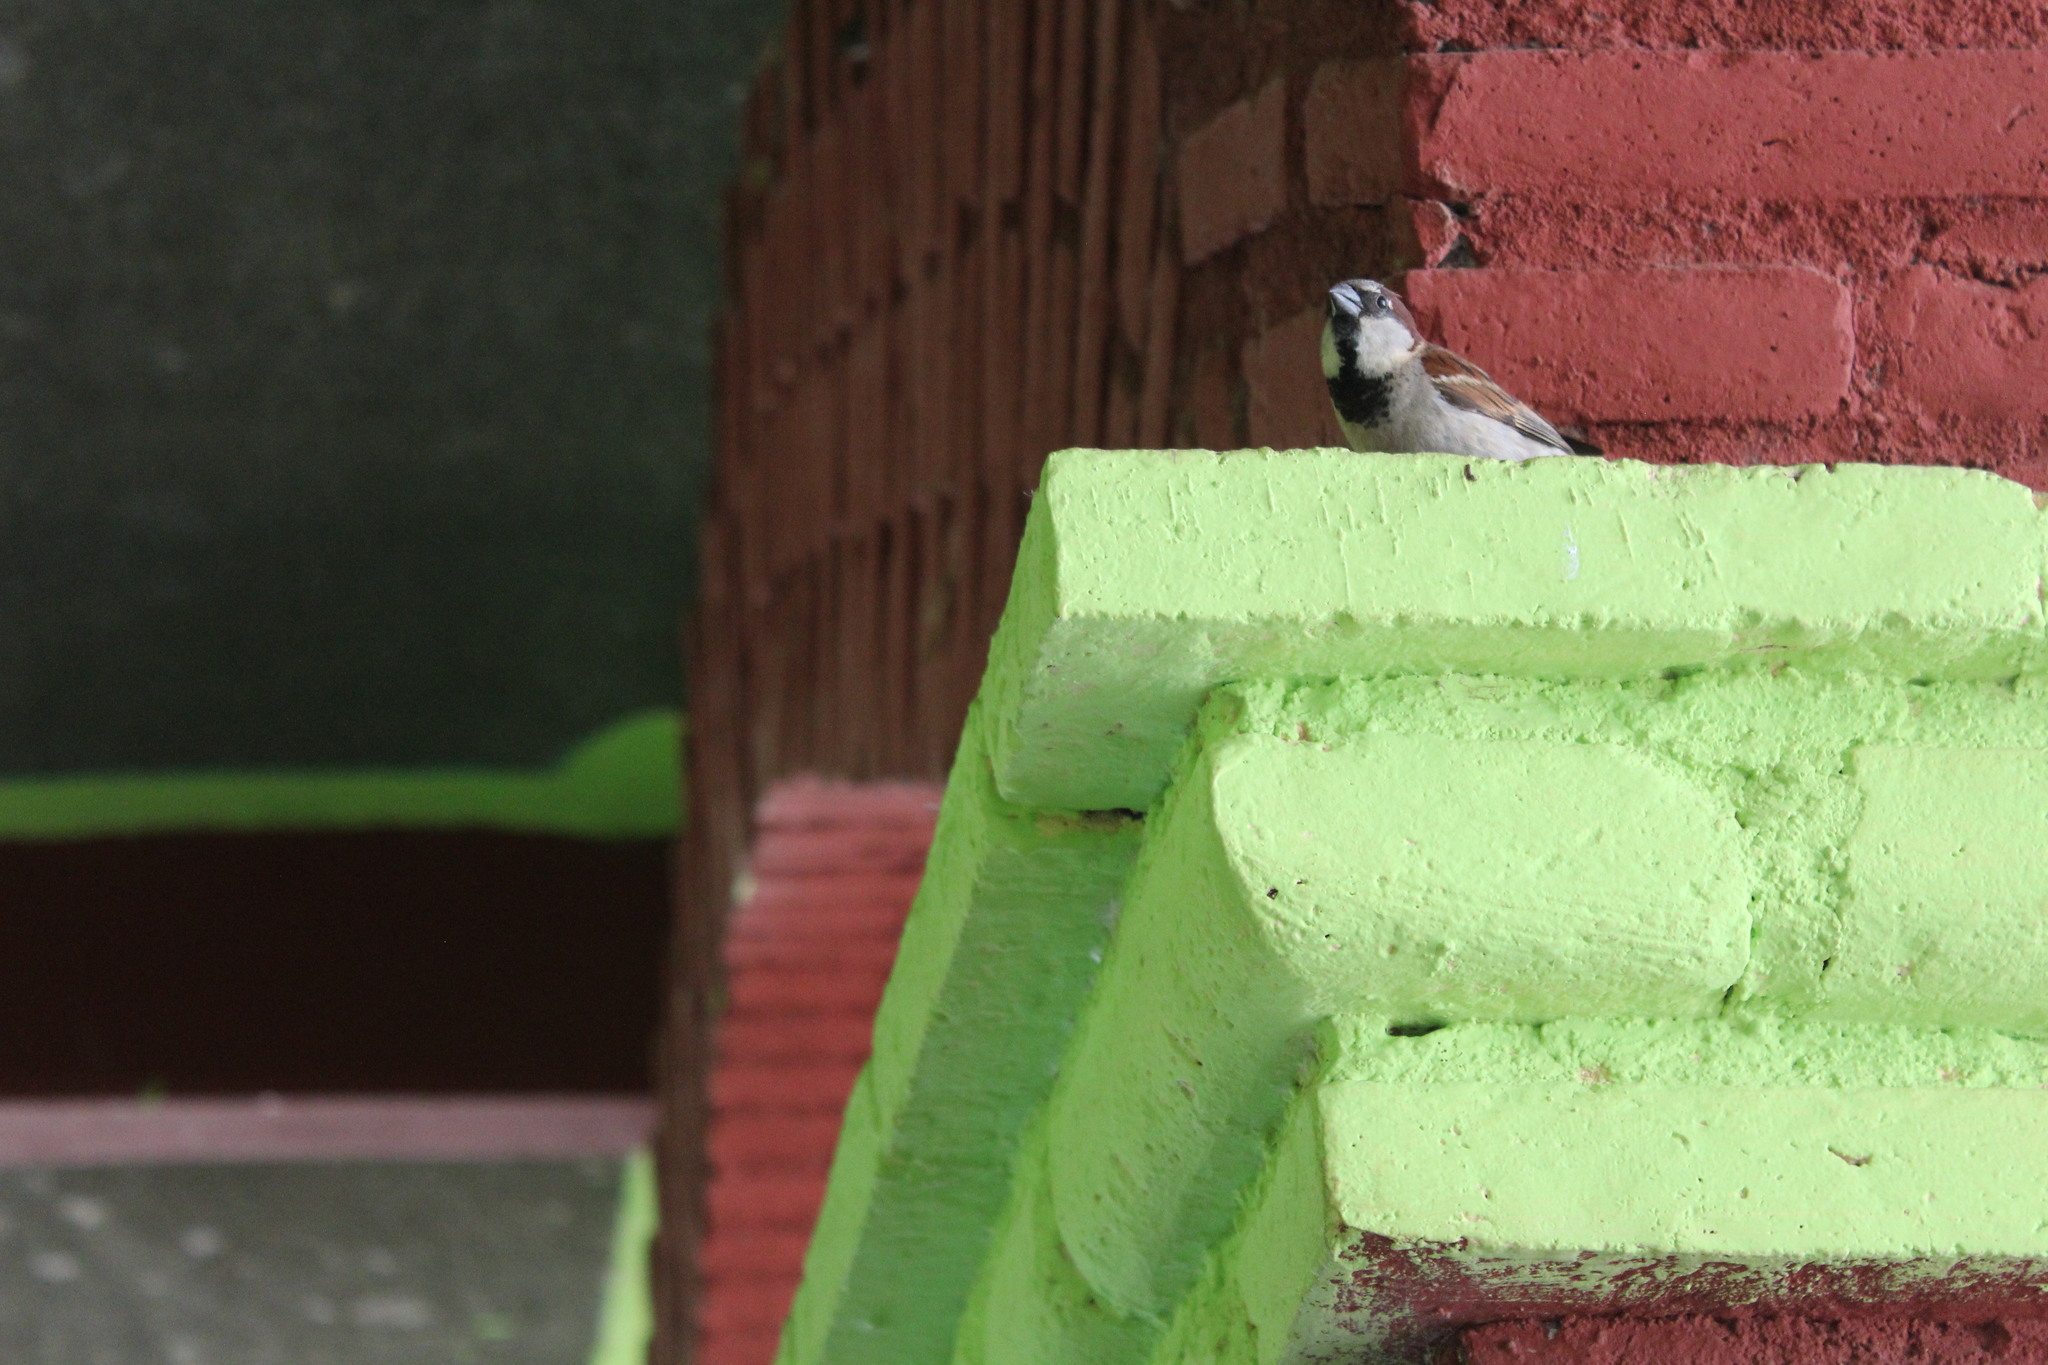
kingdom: Animalia
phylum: Chordata
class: Aves
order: Passeriformes
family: Passeridae
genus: Passer
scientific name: Passer domesticus
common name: House sparrow
